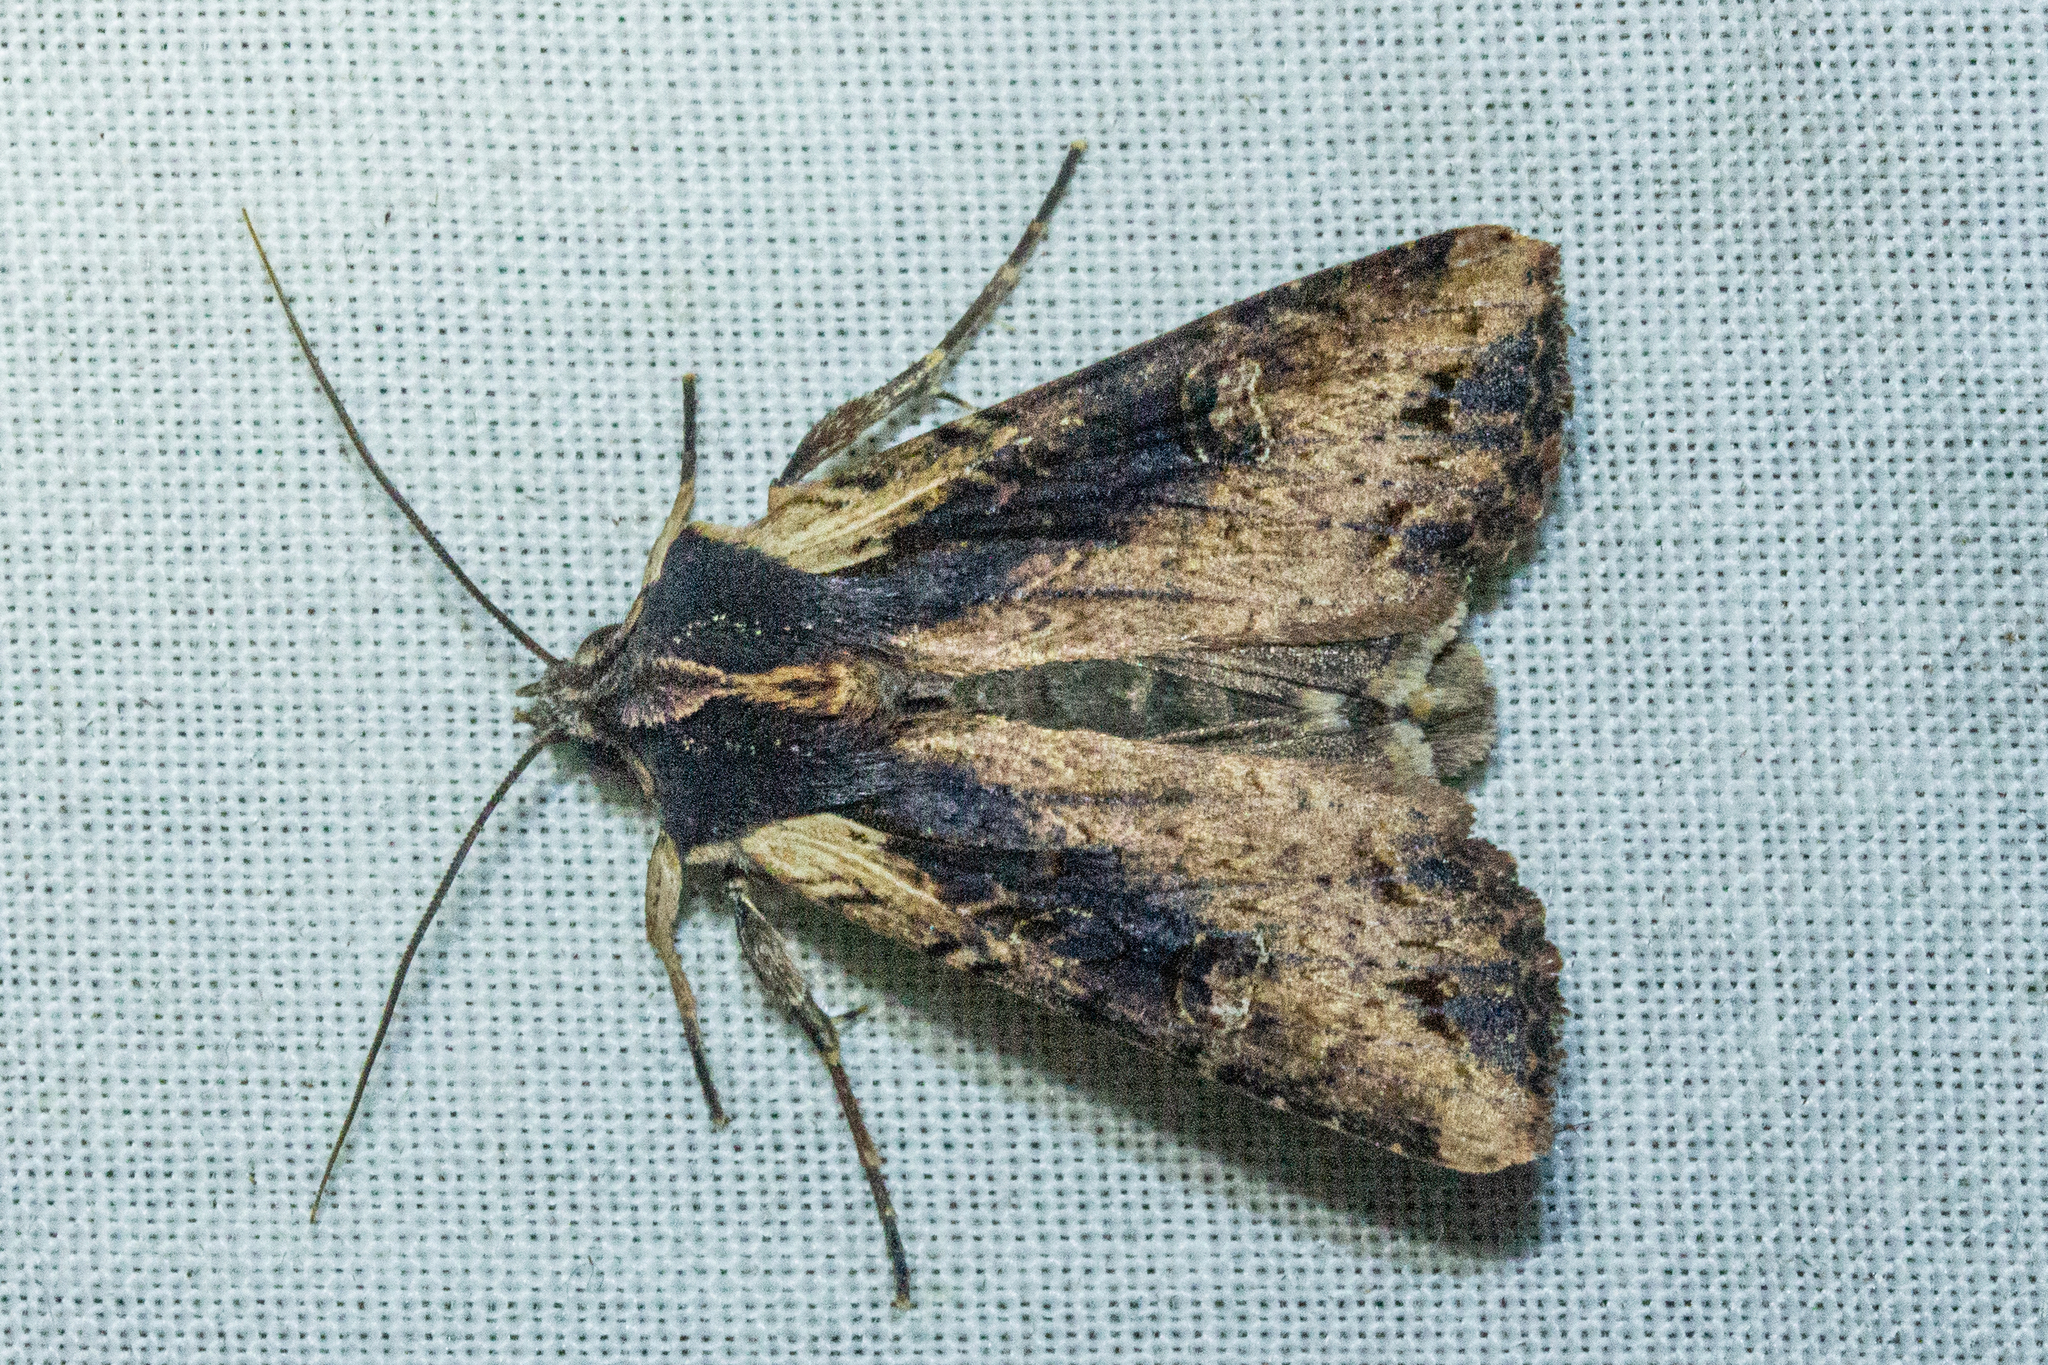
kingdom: Animalia
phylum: Arthropoda
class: Insecta
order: Lepidoptera
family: Noctuidae
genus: Ichneutica
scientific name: Ichneutica omoplaca
